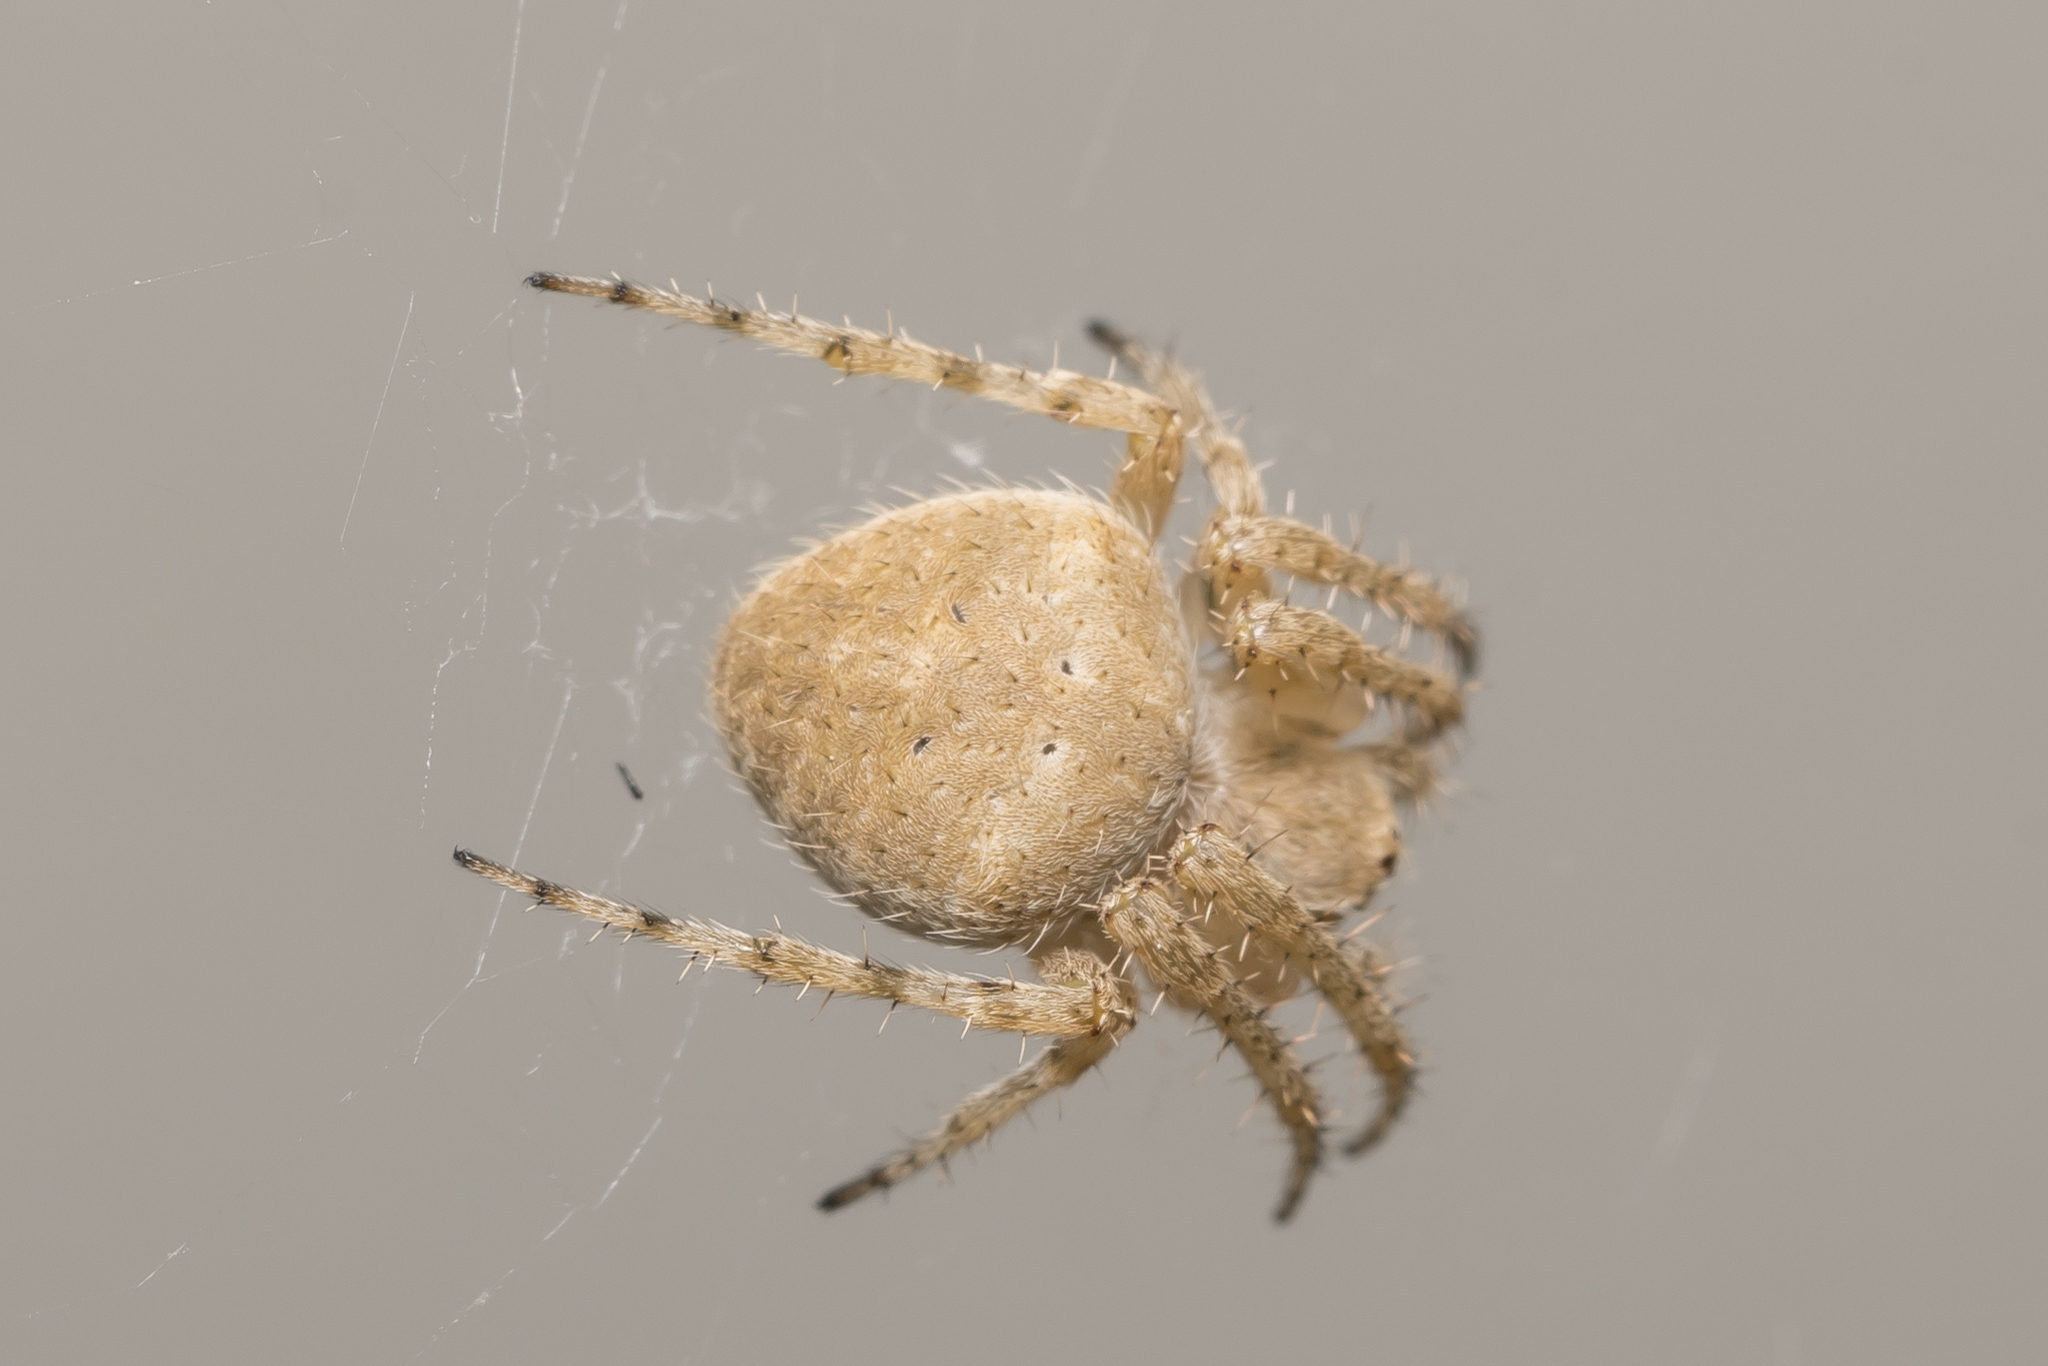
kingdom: Animalia
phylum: Arthropoda
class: Arachnida
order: Araneae
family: Araneidae
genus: Neoscona
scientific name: Neoscona subfusca
